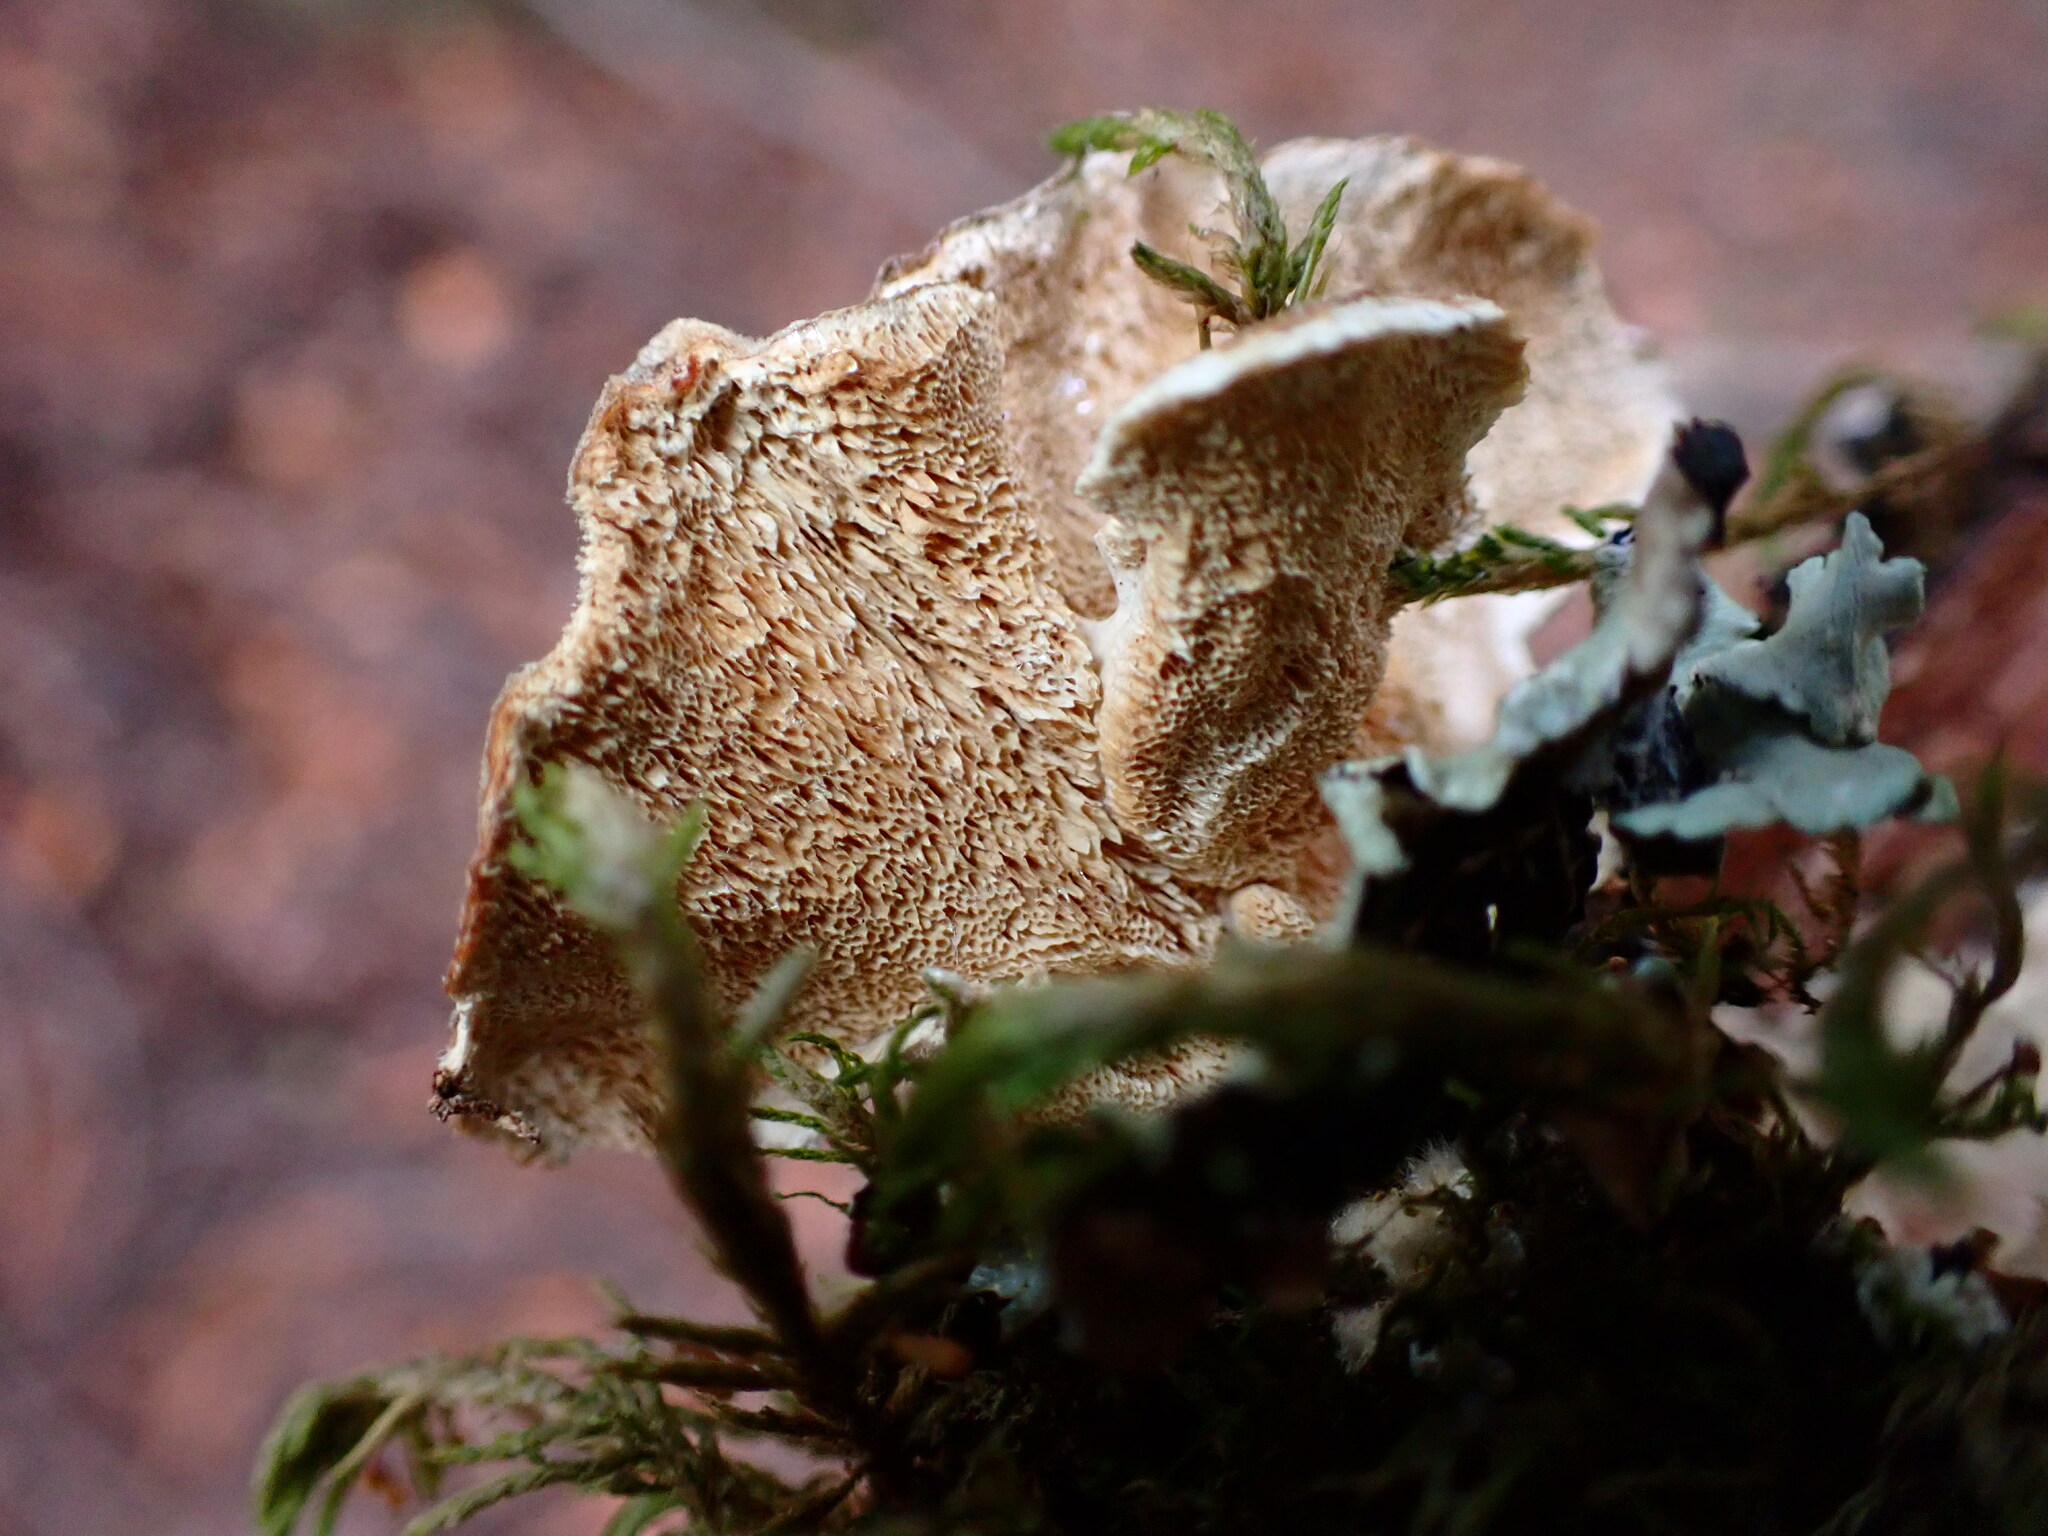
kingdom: Fungi
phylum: Basidiomycota
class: Agaricomycetes
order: Polyporales
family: Polyporaceae
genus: Trametes
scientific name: Trametes versicolor
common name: Turkeytail
